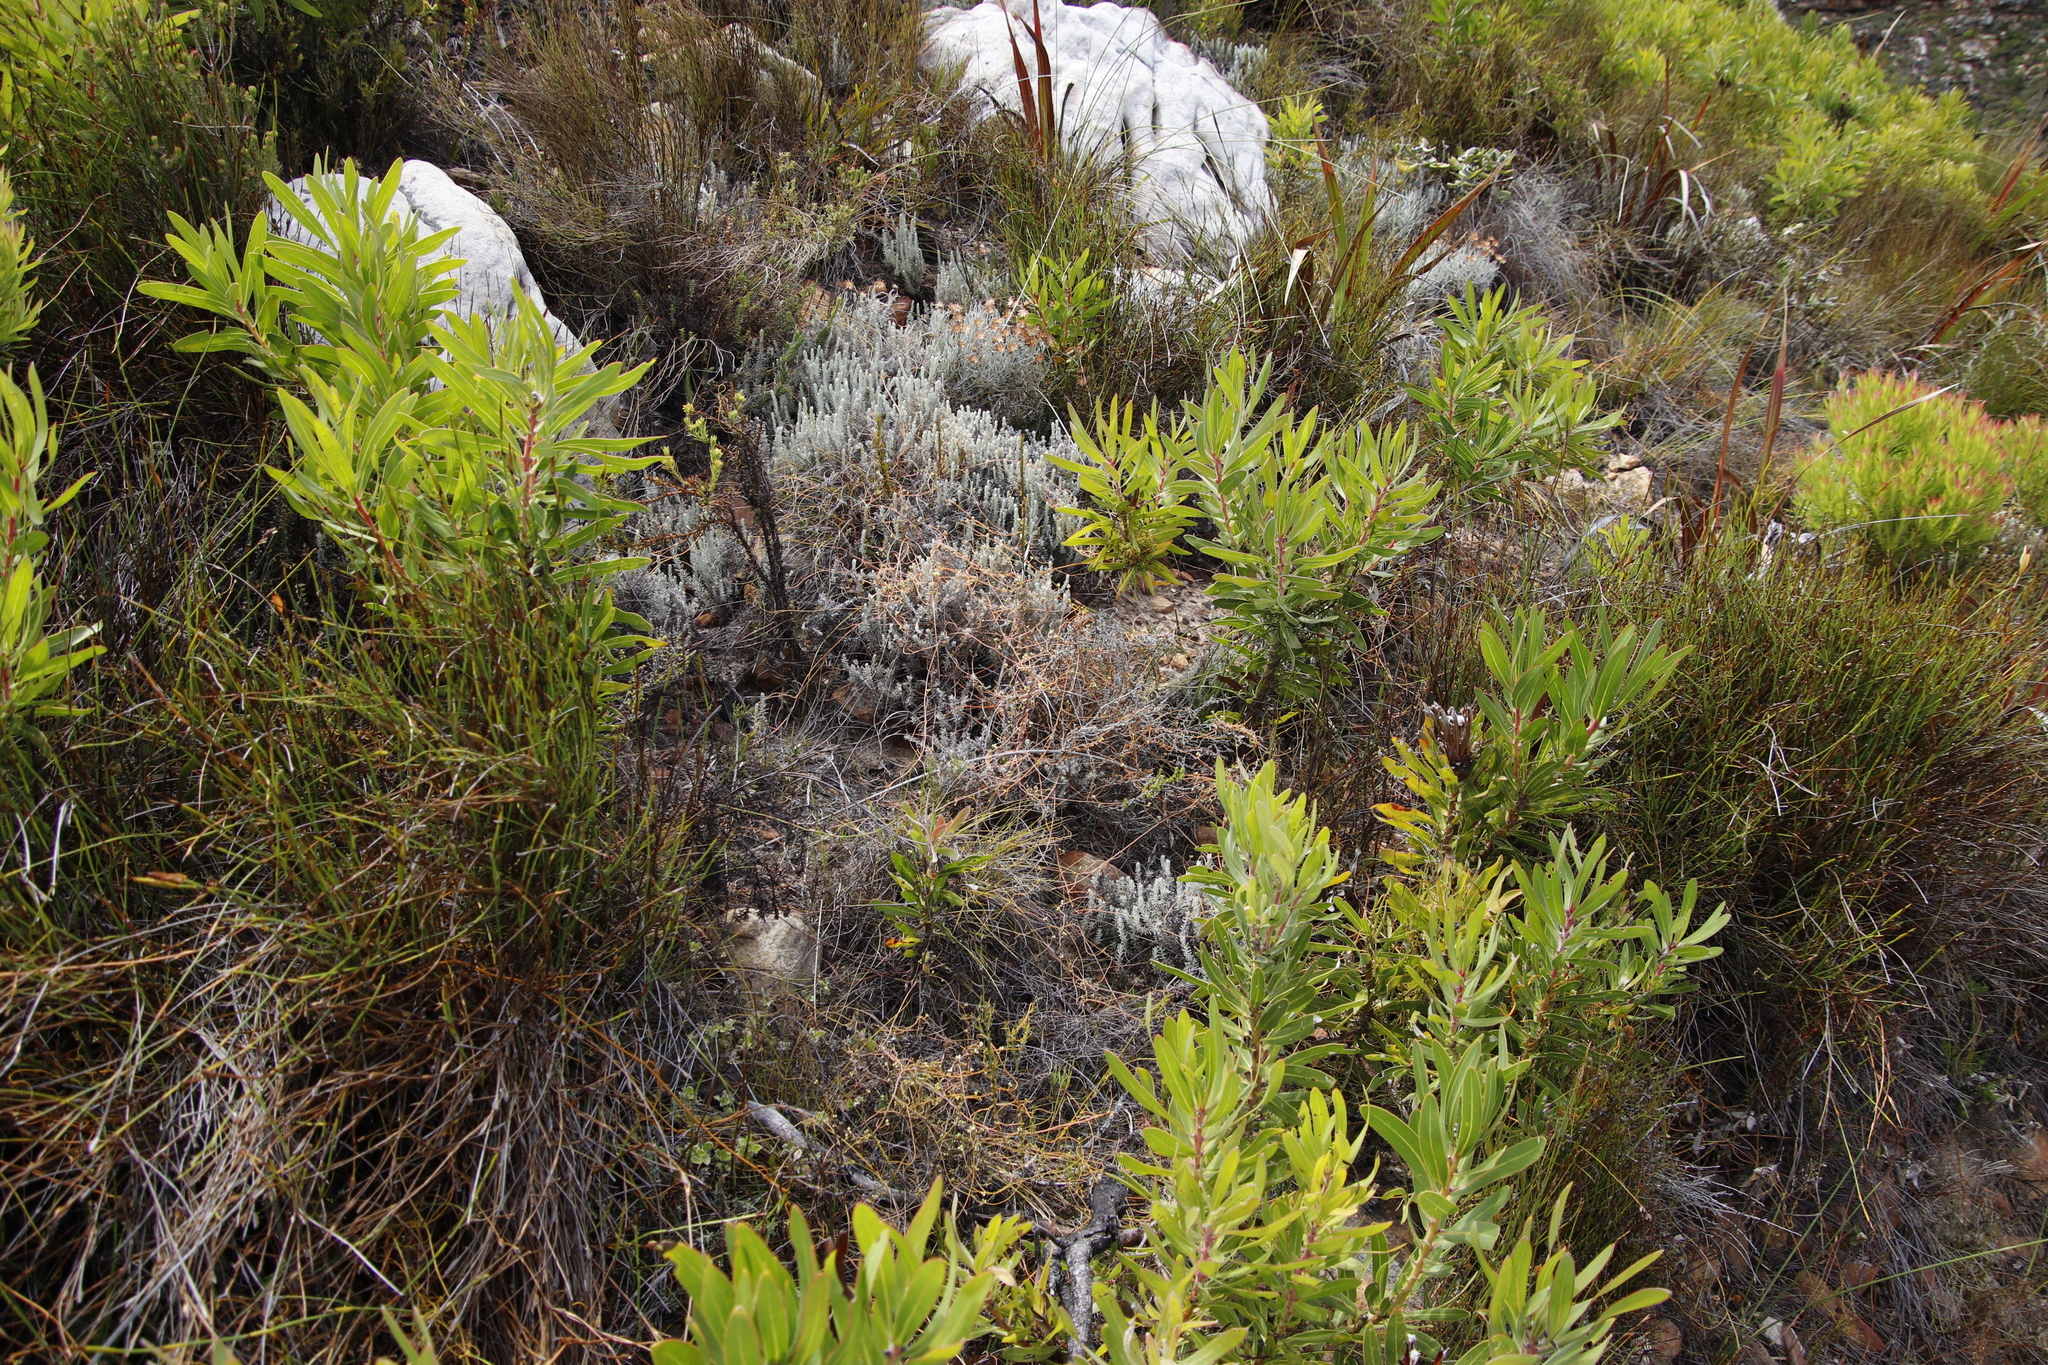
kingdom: Plantae
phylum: Tracheophyta
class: Magnoliopsida
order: Laurales
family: Lauraceae
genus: Cassytha
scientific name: Cassytha ciliolata
